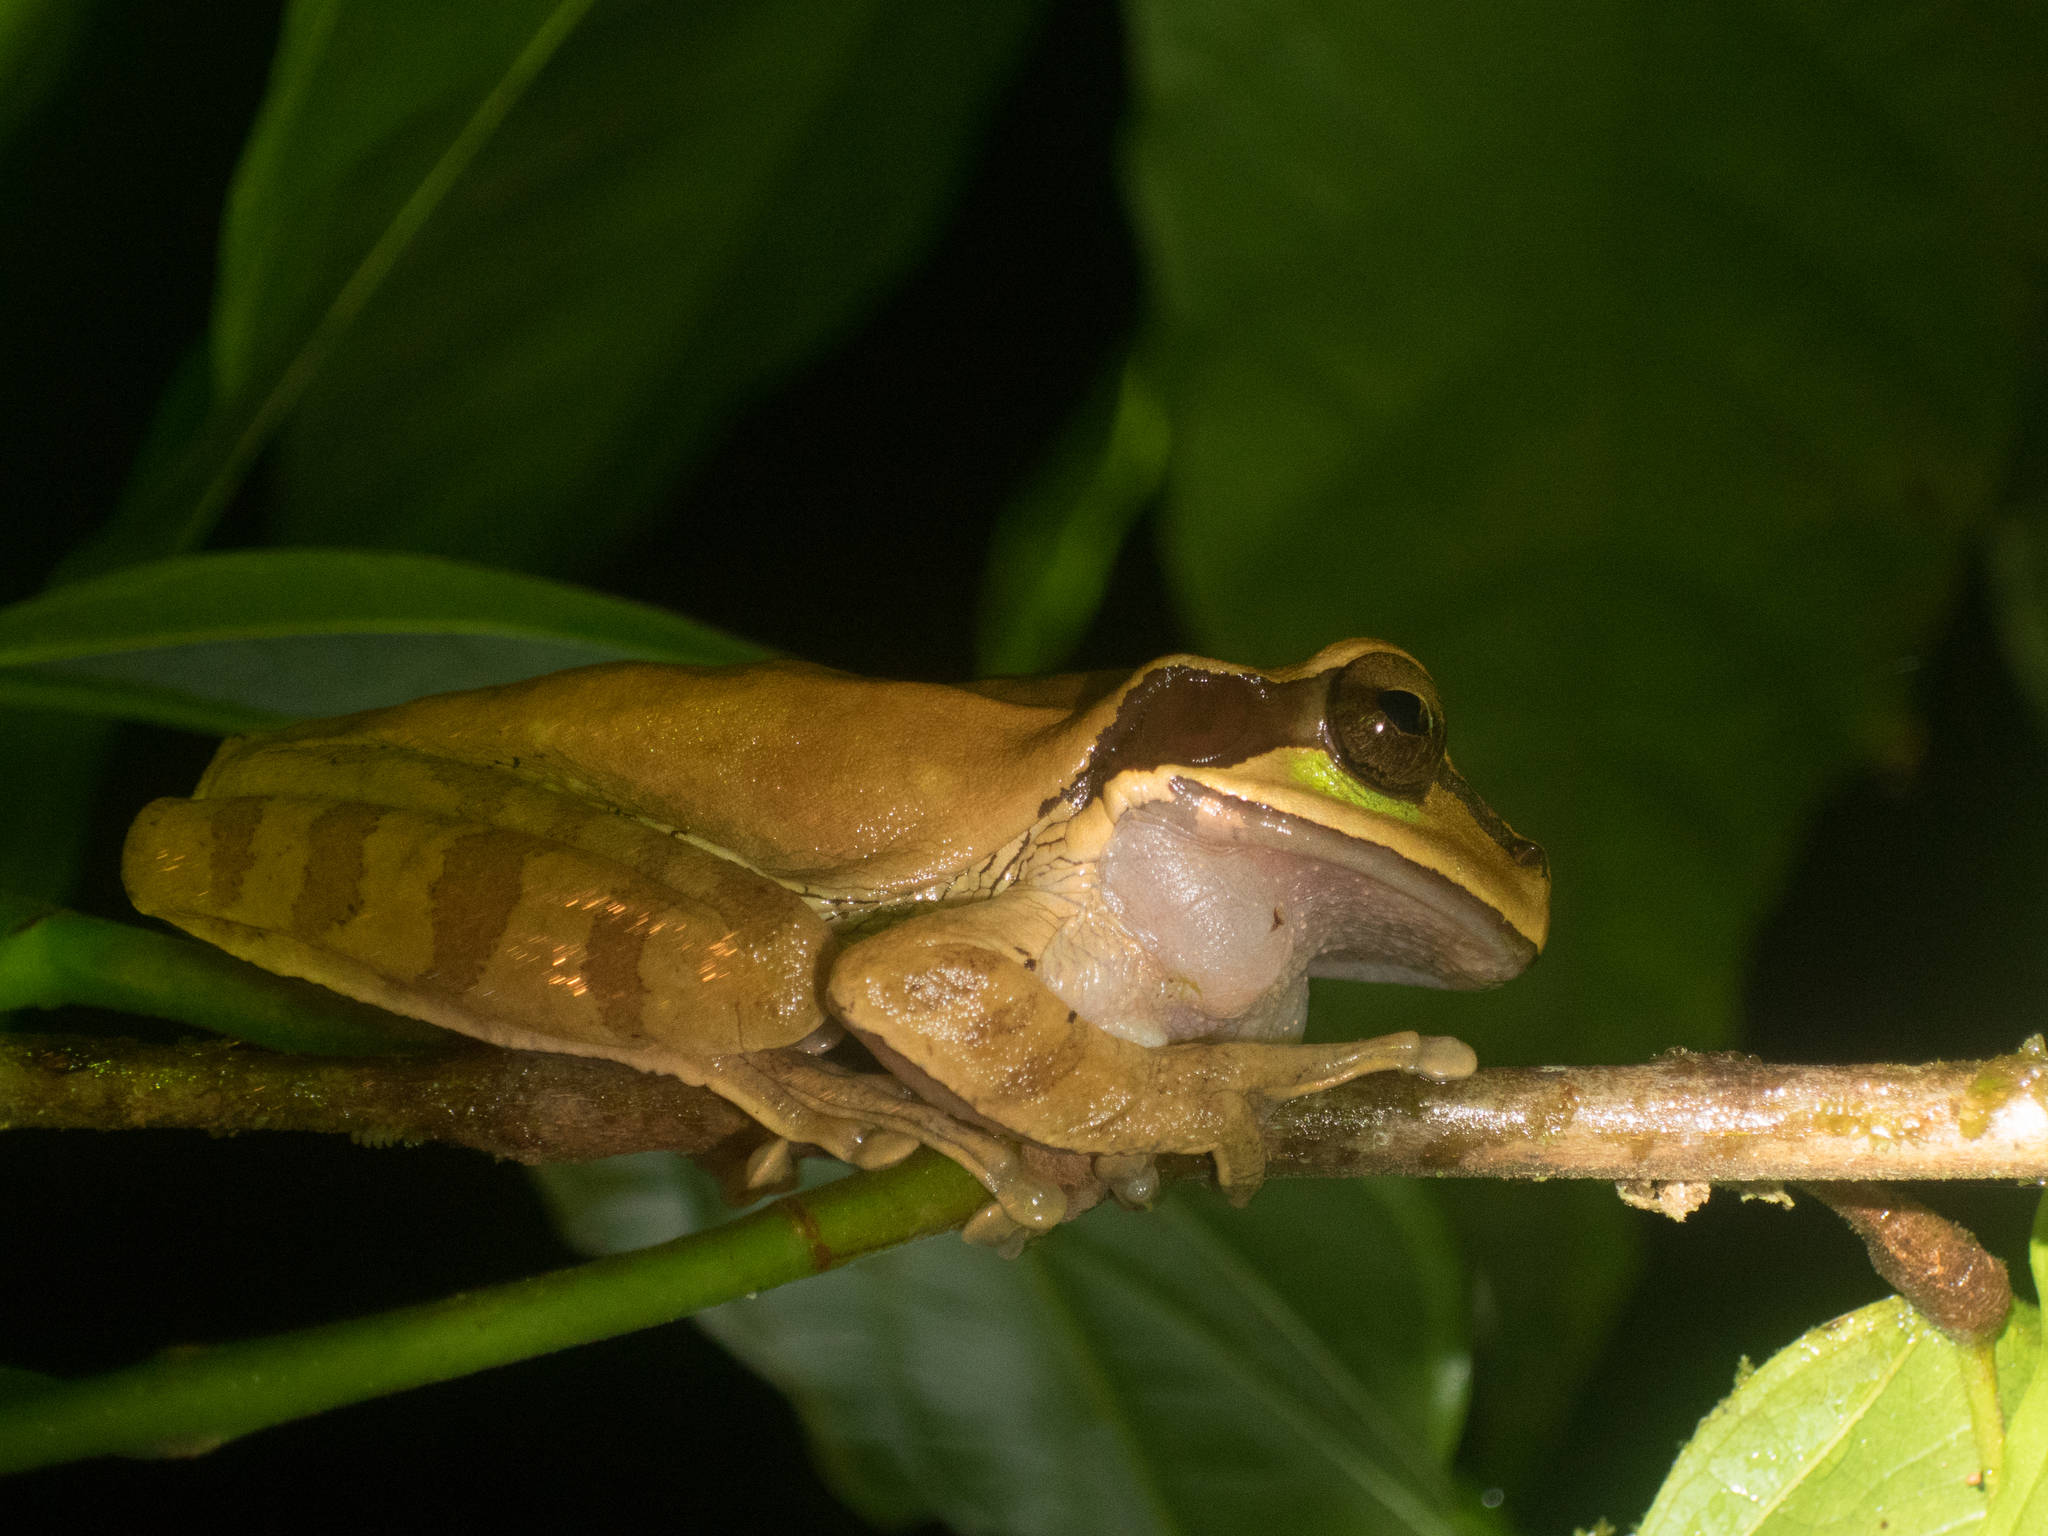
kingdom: Animalia
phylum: Chordata
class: Amphibia
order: Anura
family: Hylidae
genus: Smilisca
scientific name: Smilisca phaeota
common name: Central american smilisca
